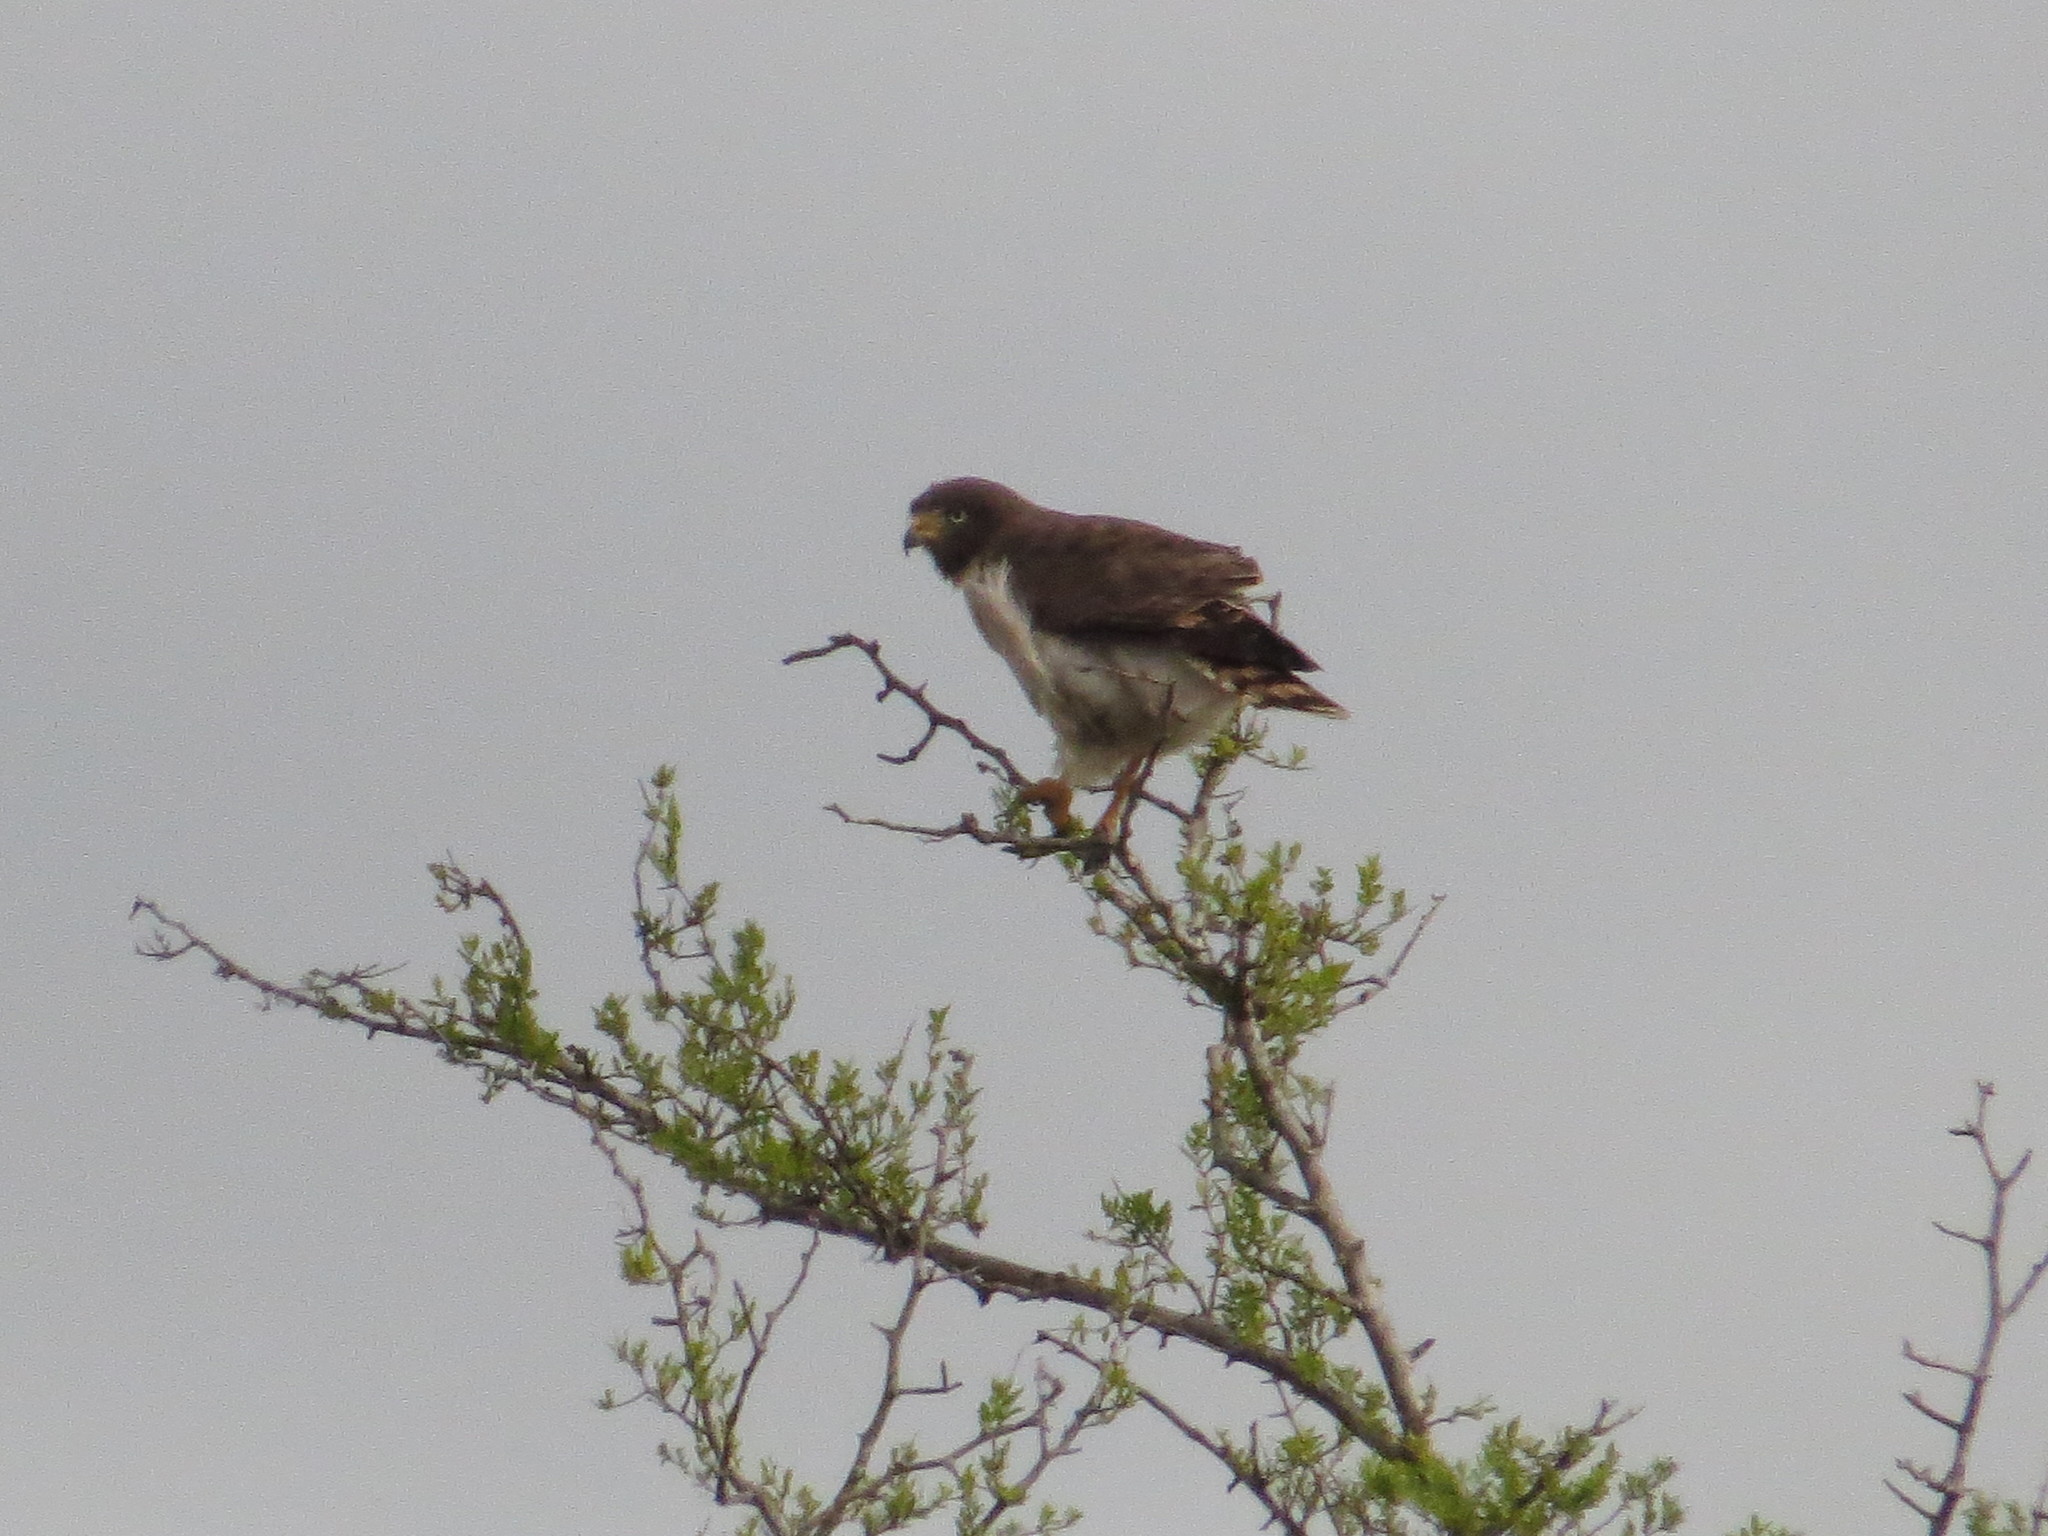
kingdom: Animalia
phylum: Chordata
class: Aves
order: Accipitriformes
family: Accipitridae
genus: Rupornis
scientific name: Rupornis magnirostris
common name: Roadside hawk
